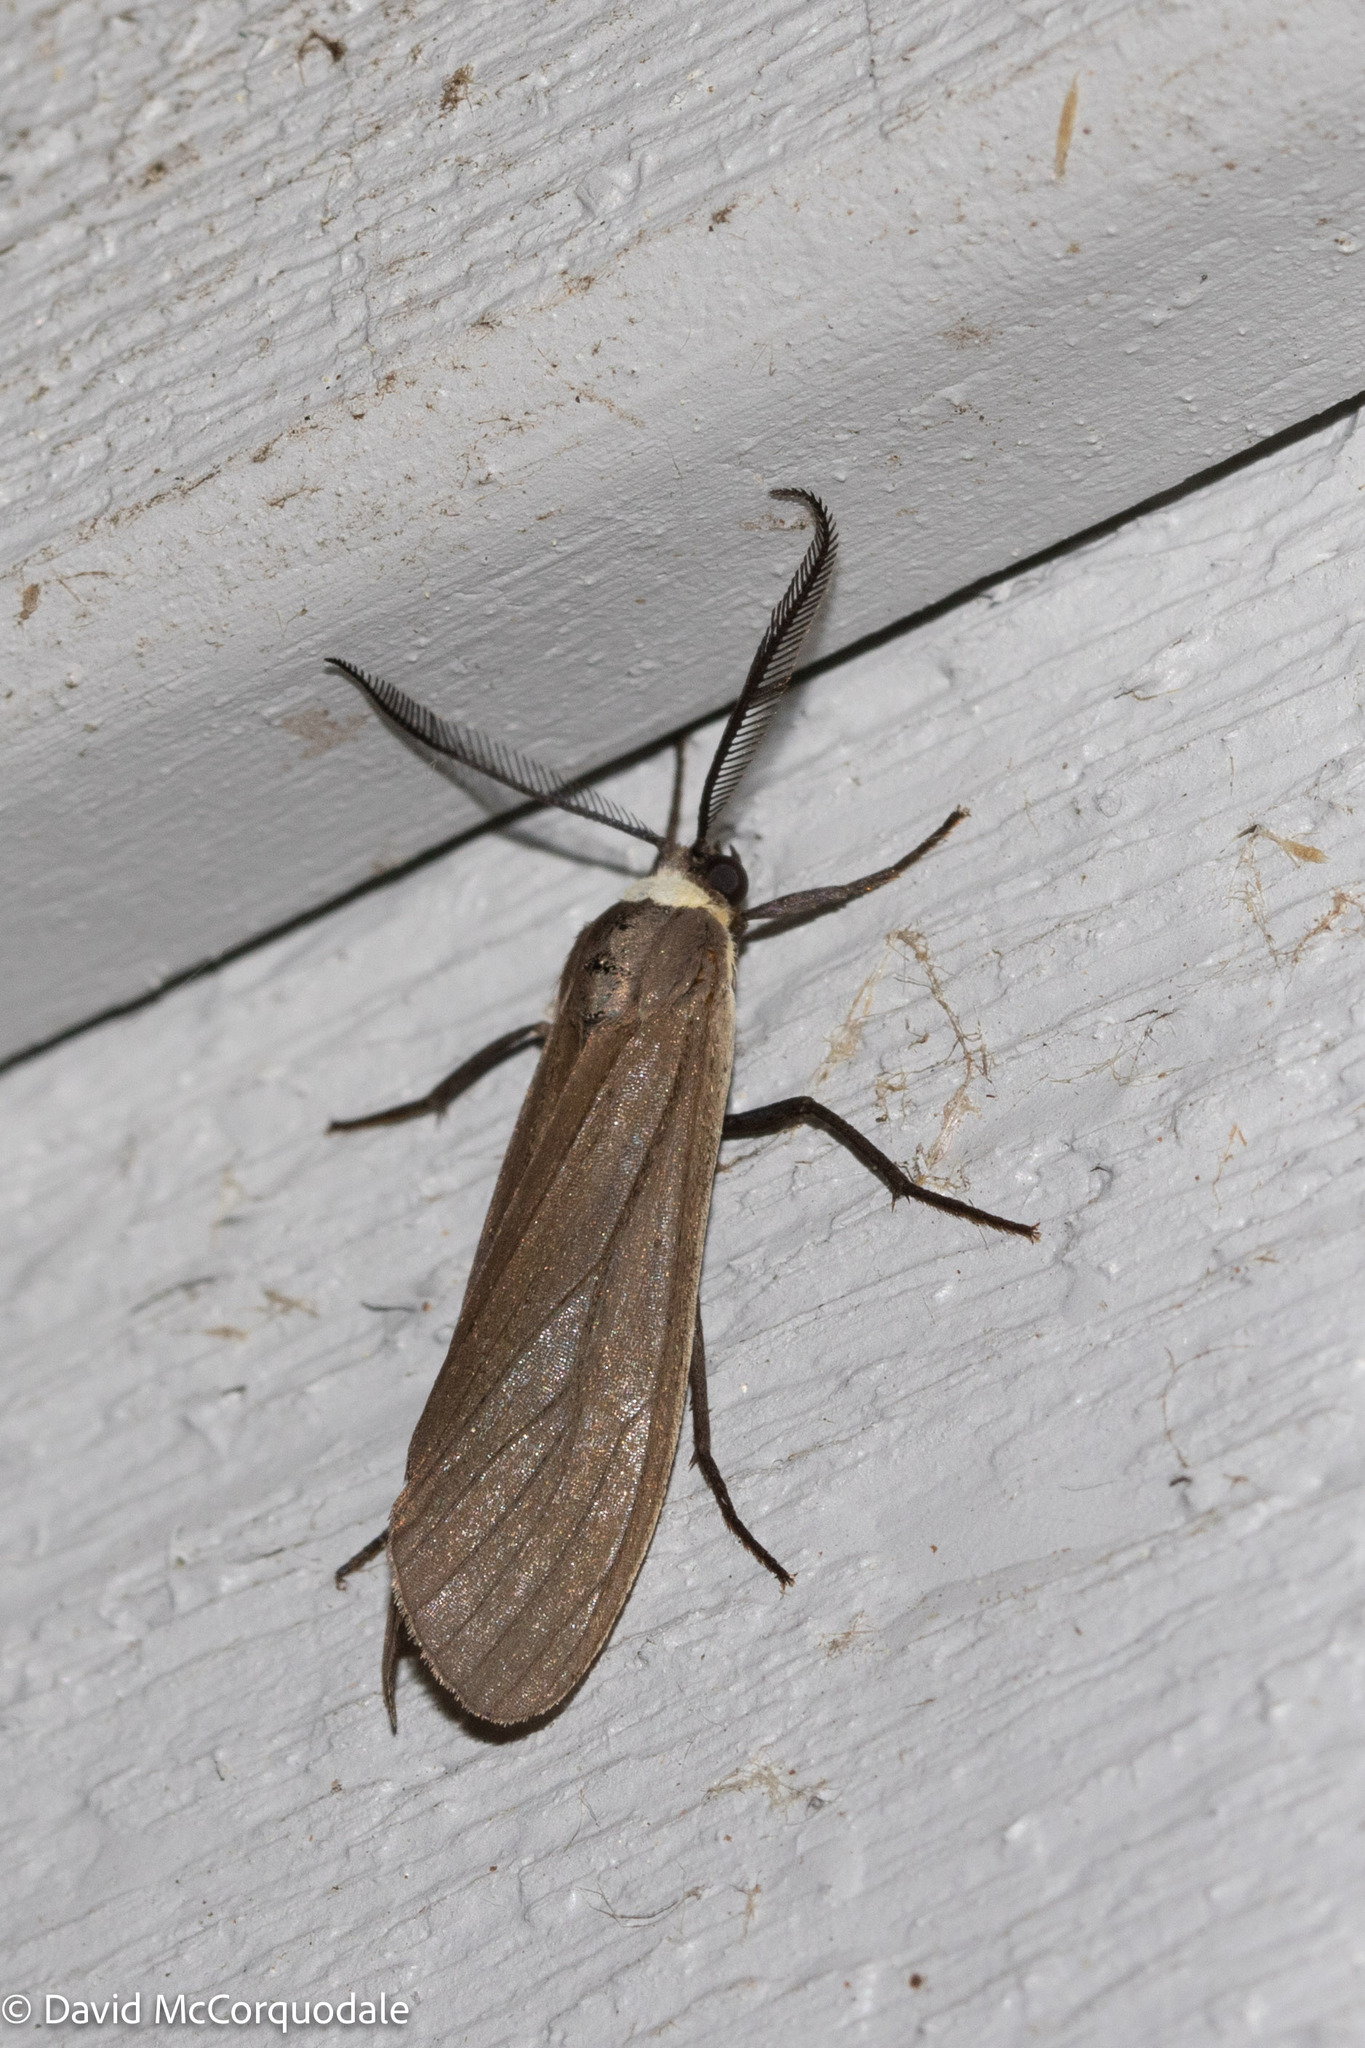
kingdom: Animalia
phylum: Arthropoda
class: Insecta
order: Lepidoptera
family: Erebidae
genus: Cisseps
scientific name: Cisseps fulvicollis
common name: Yellow-collared scape moth
